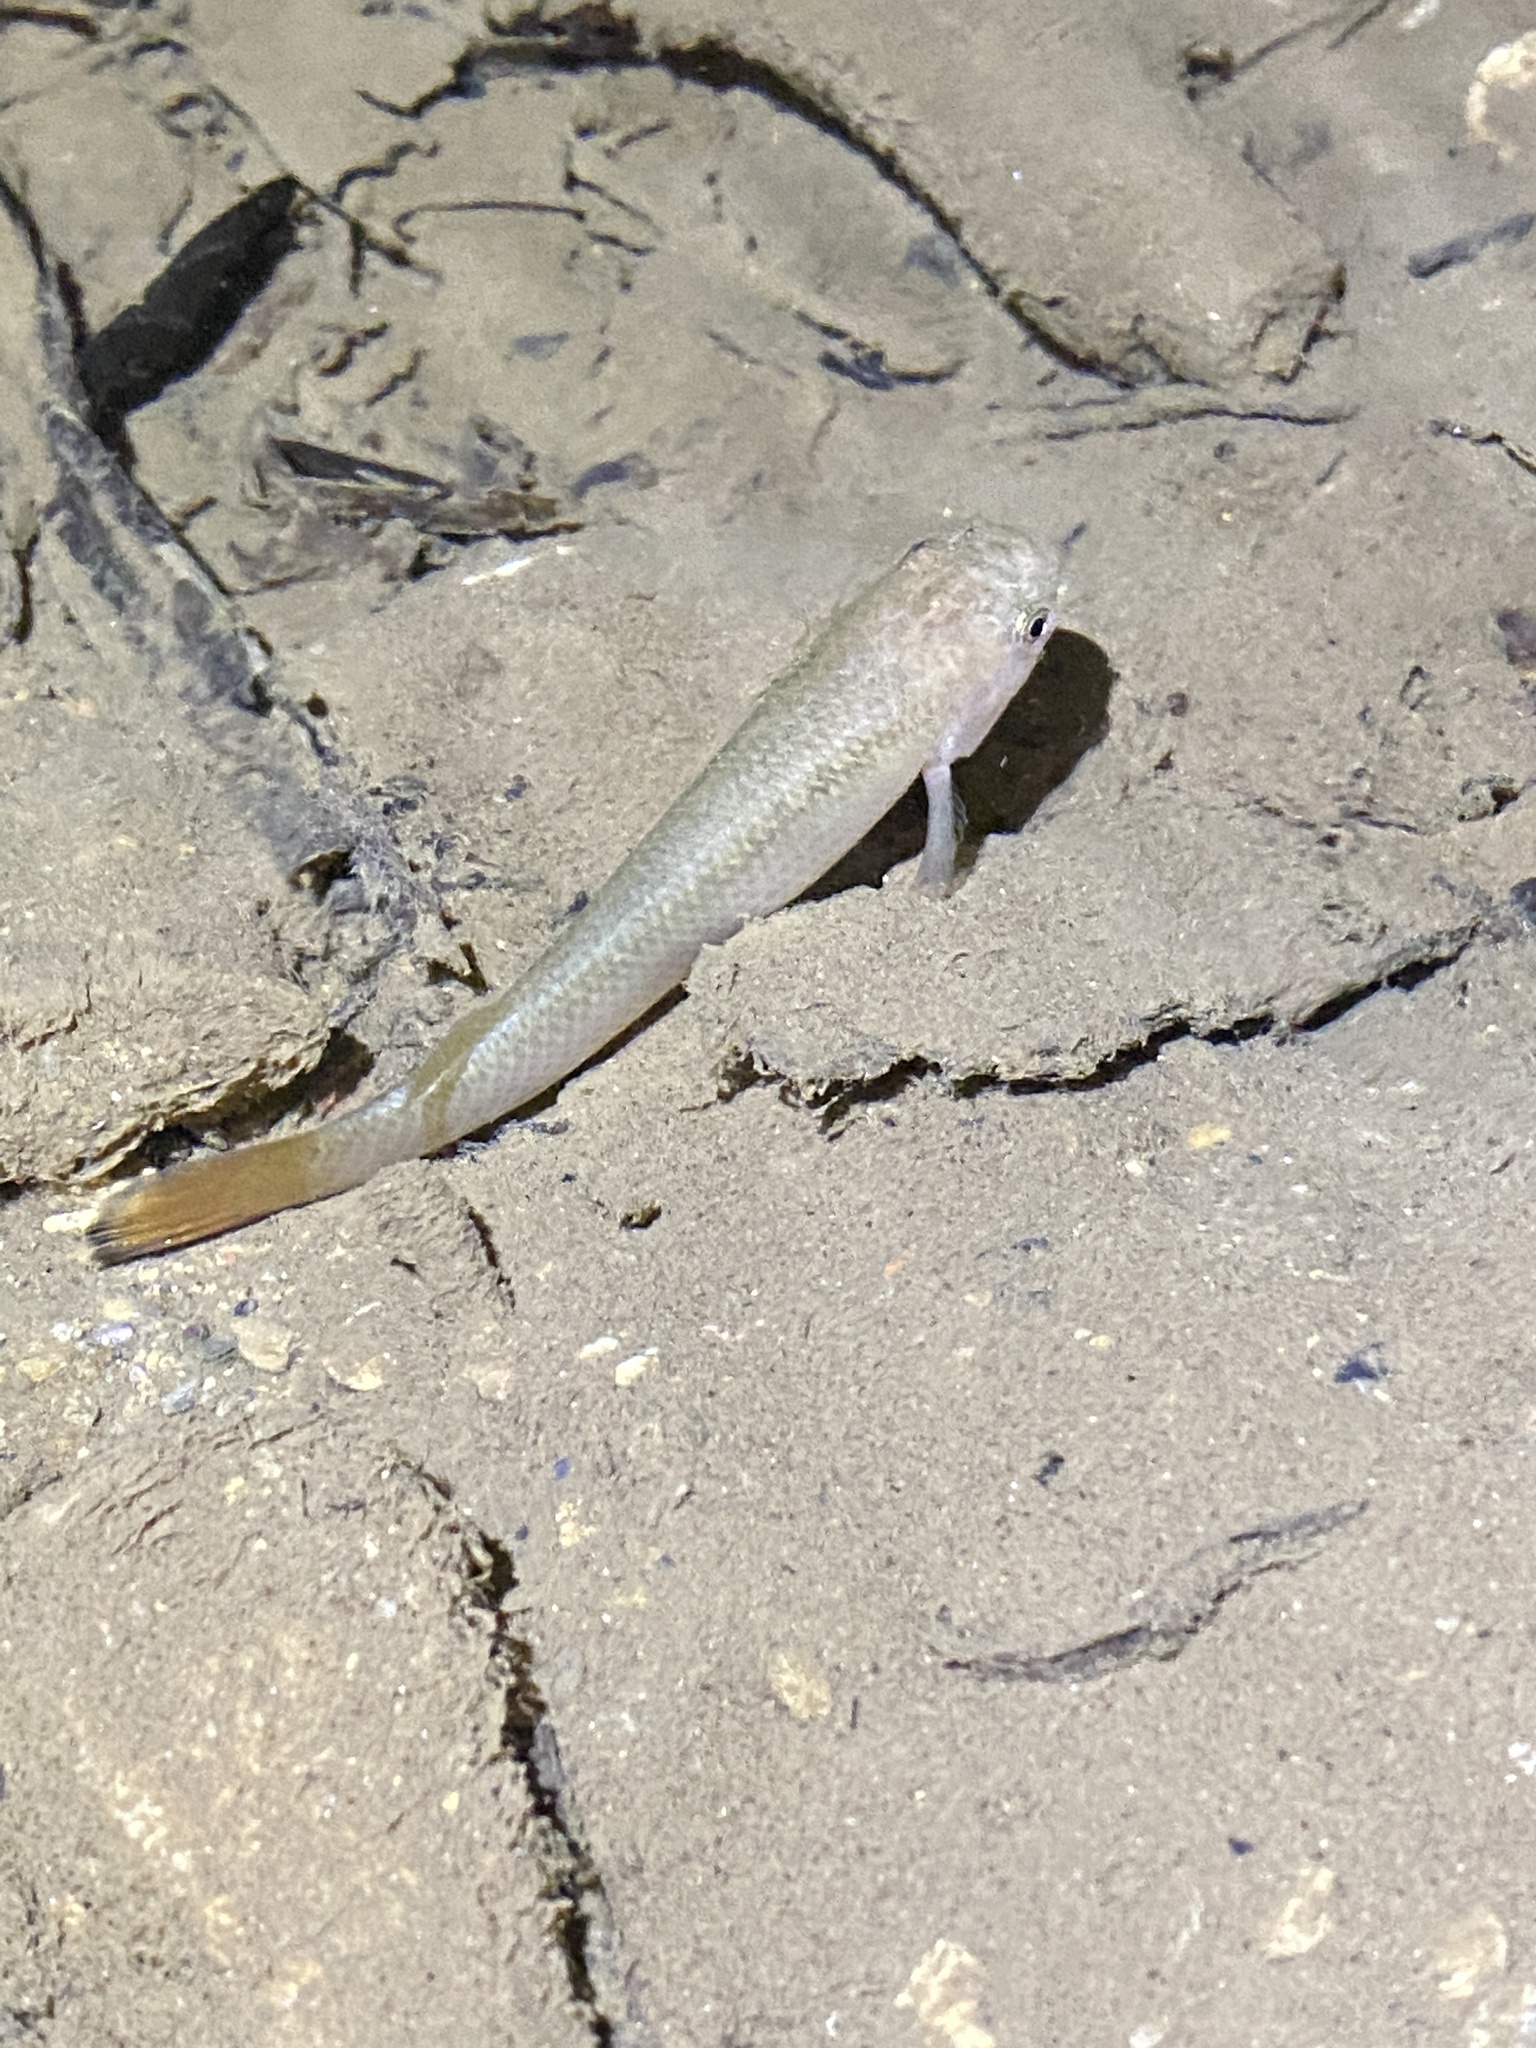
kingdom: Animalia
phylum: Chordata
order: Cyprinodontiformes
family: Rivulidae
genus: Anablepsoides
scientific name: Anablepsoides hartii
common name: Giant rivulus
